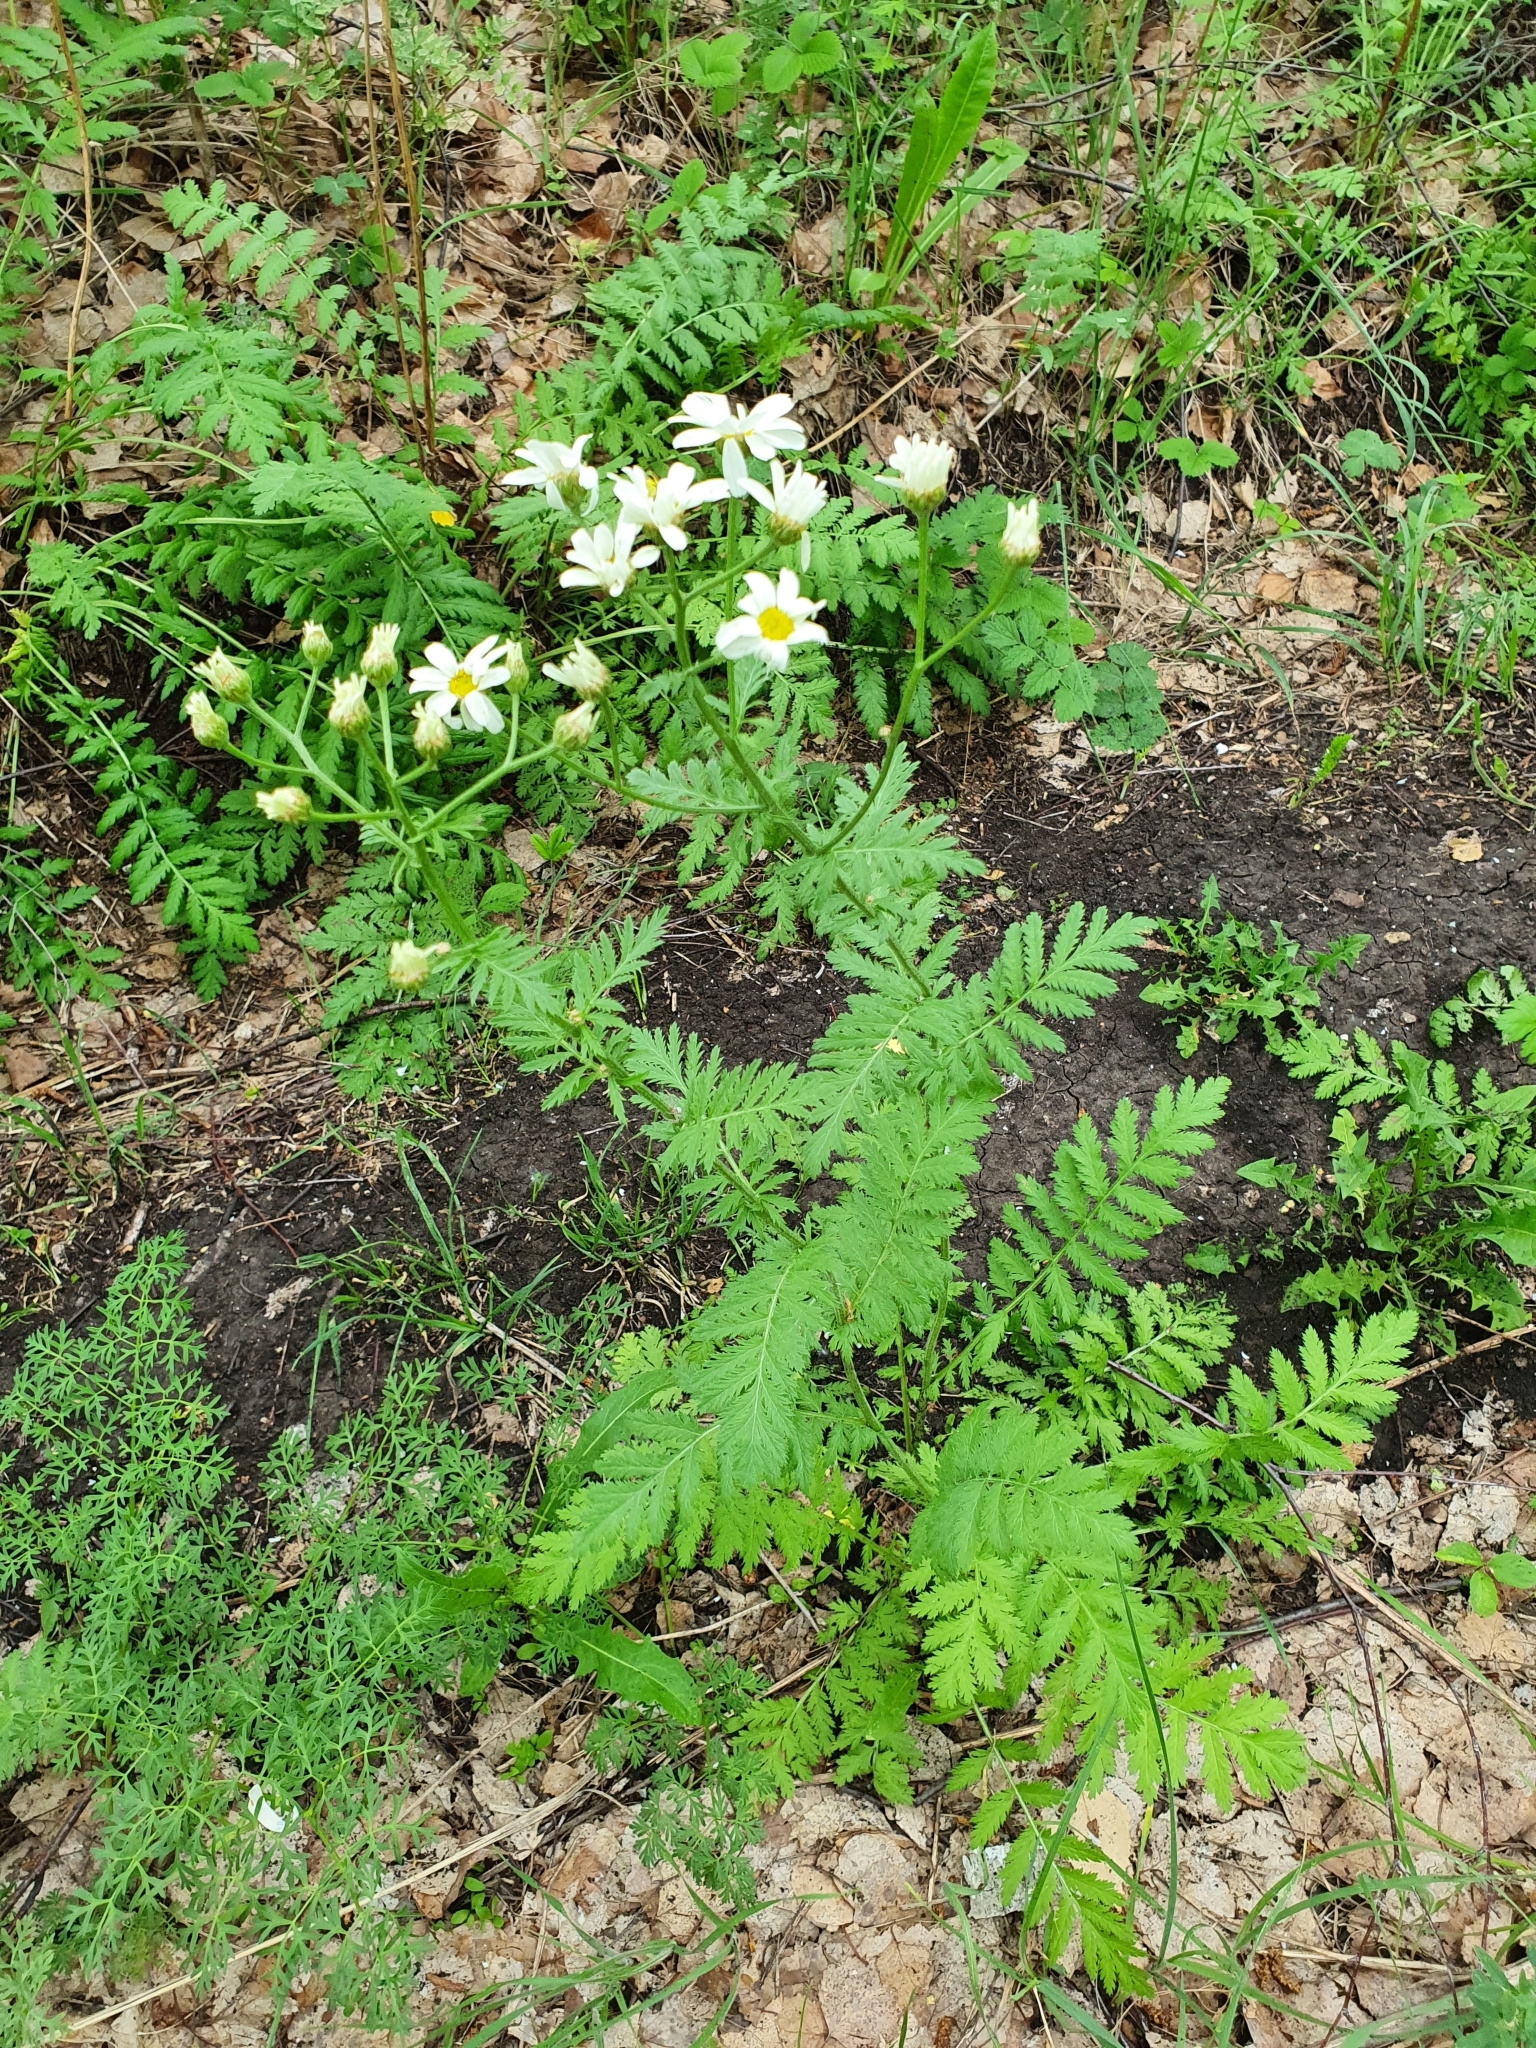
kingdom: Plantae
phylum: Tracheophyta
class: Magnoliopsida
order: Asterales
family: Asteraceae
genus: Tanacetum
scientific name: Tanacetum corymbosum
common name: Scentless feverfew
